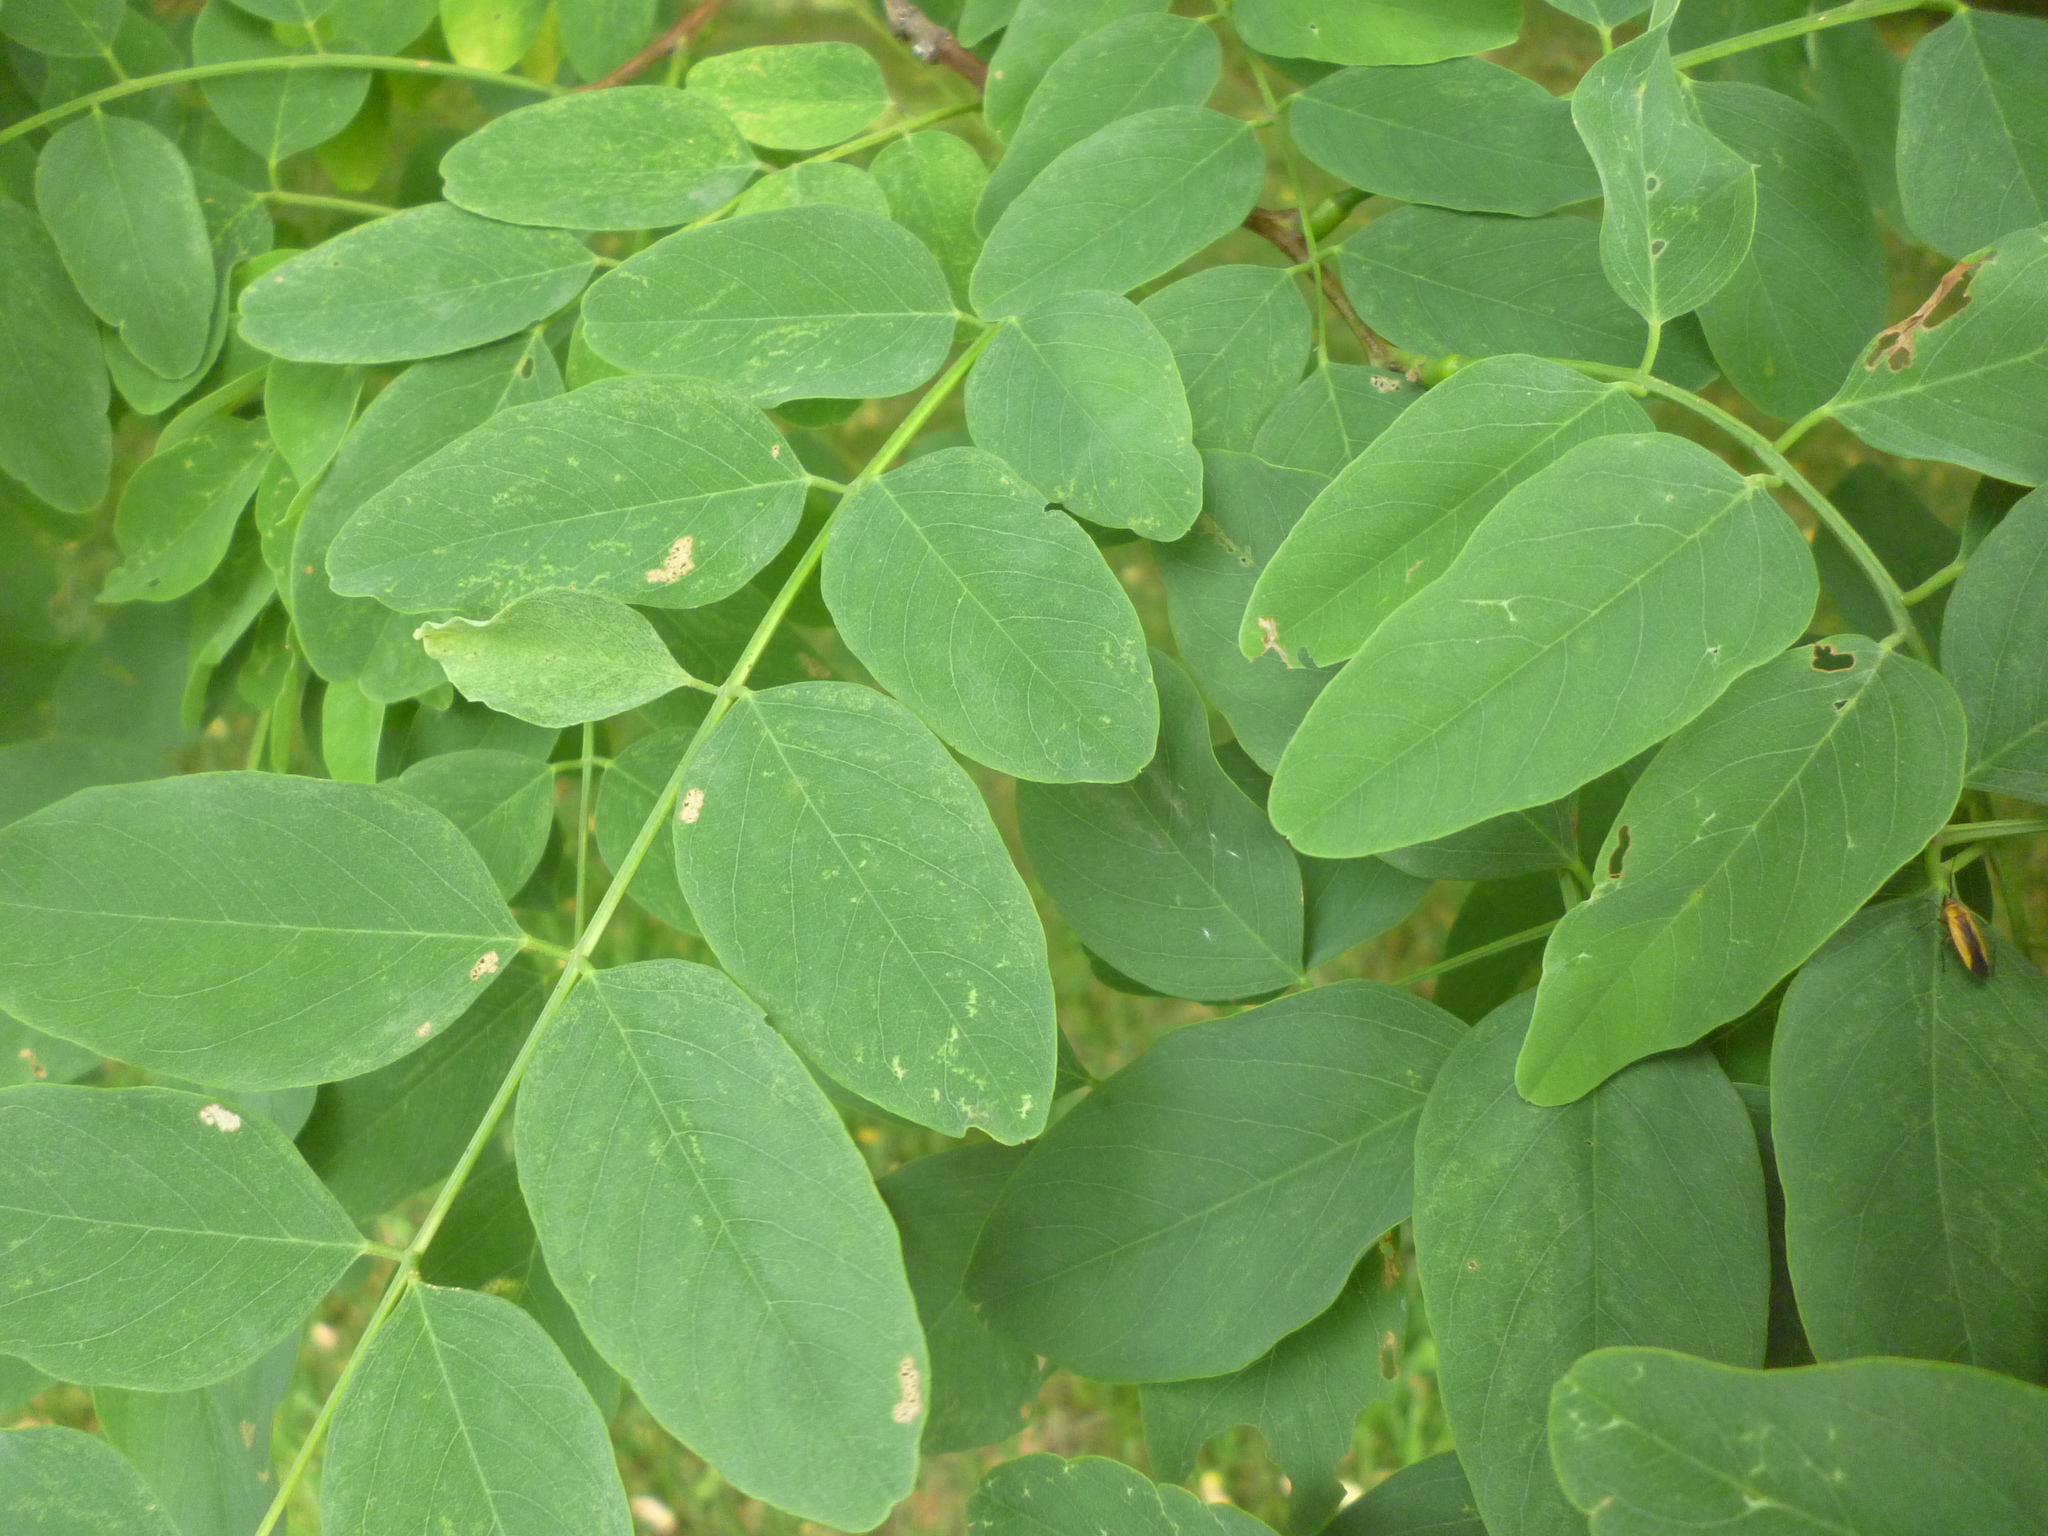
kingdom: Plantae
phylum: Tracheophyta
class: Magnoliopsida
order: Fabales
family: Fabaceae
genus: Robinia
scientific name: Robinia pseudoacacia
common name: Black locust
